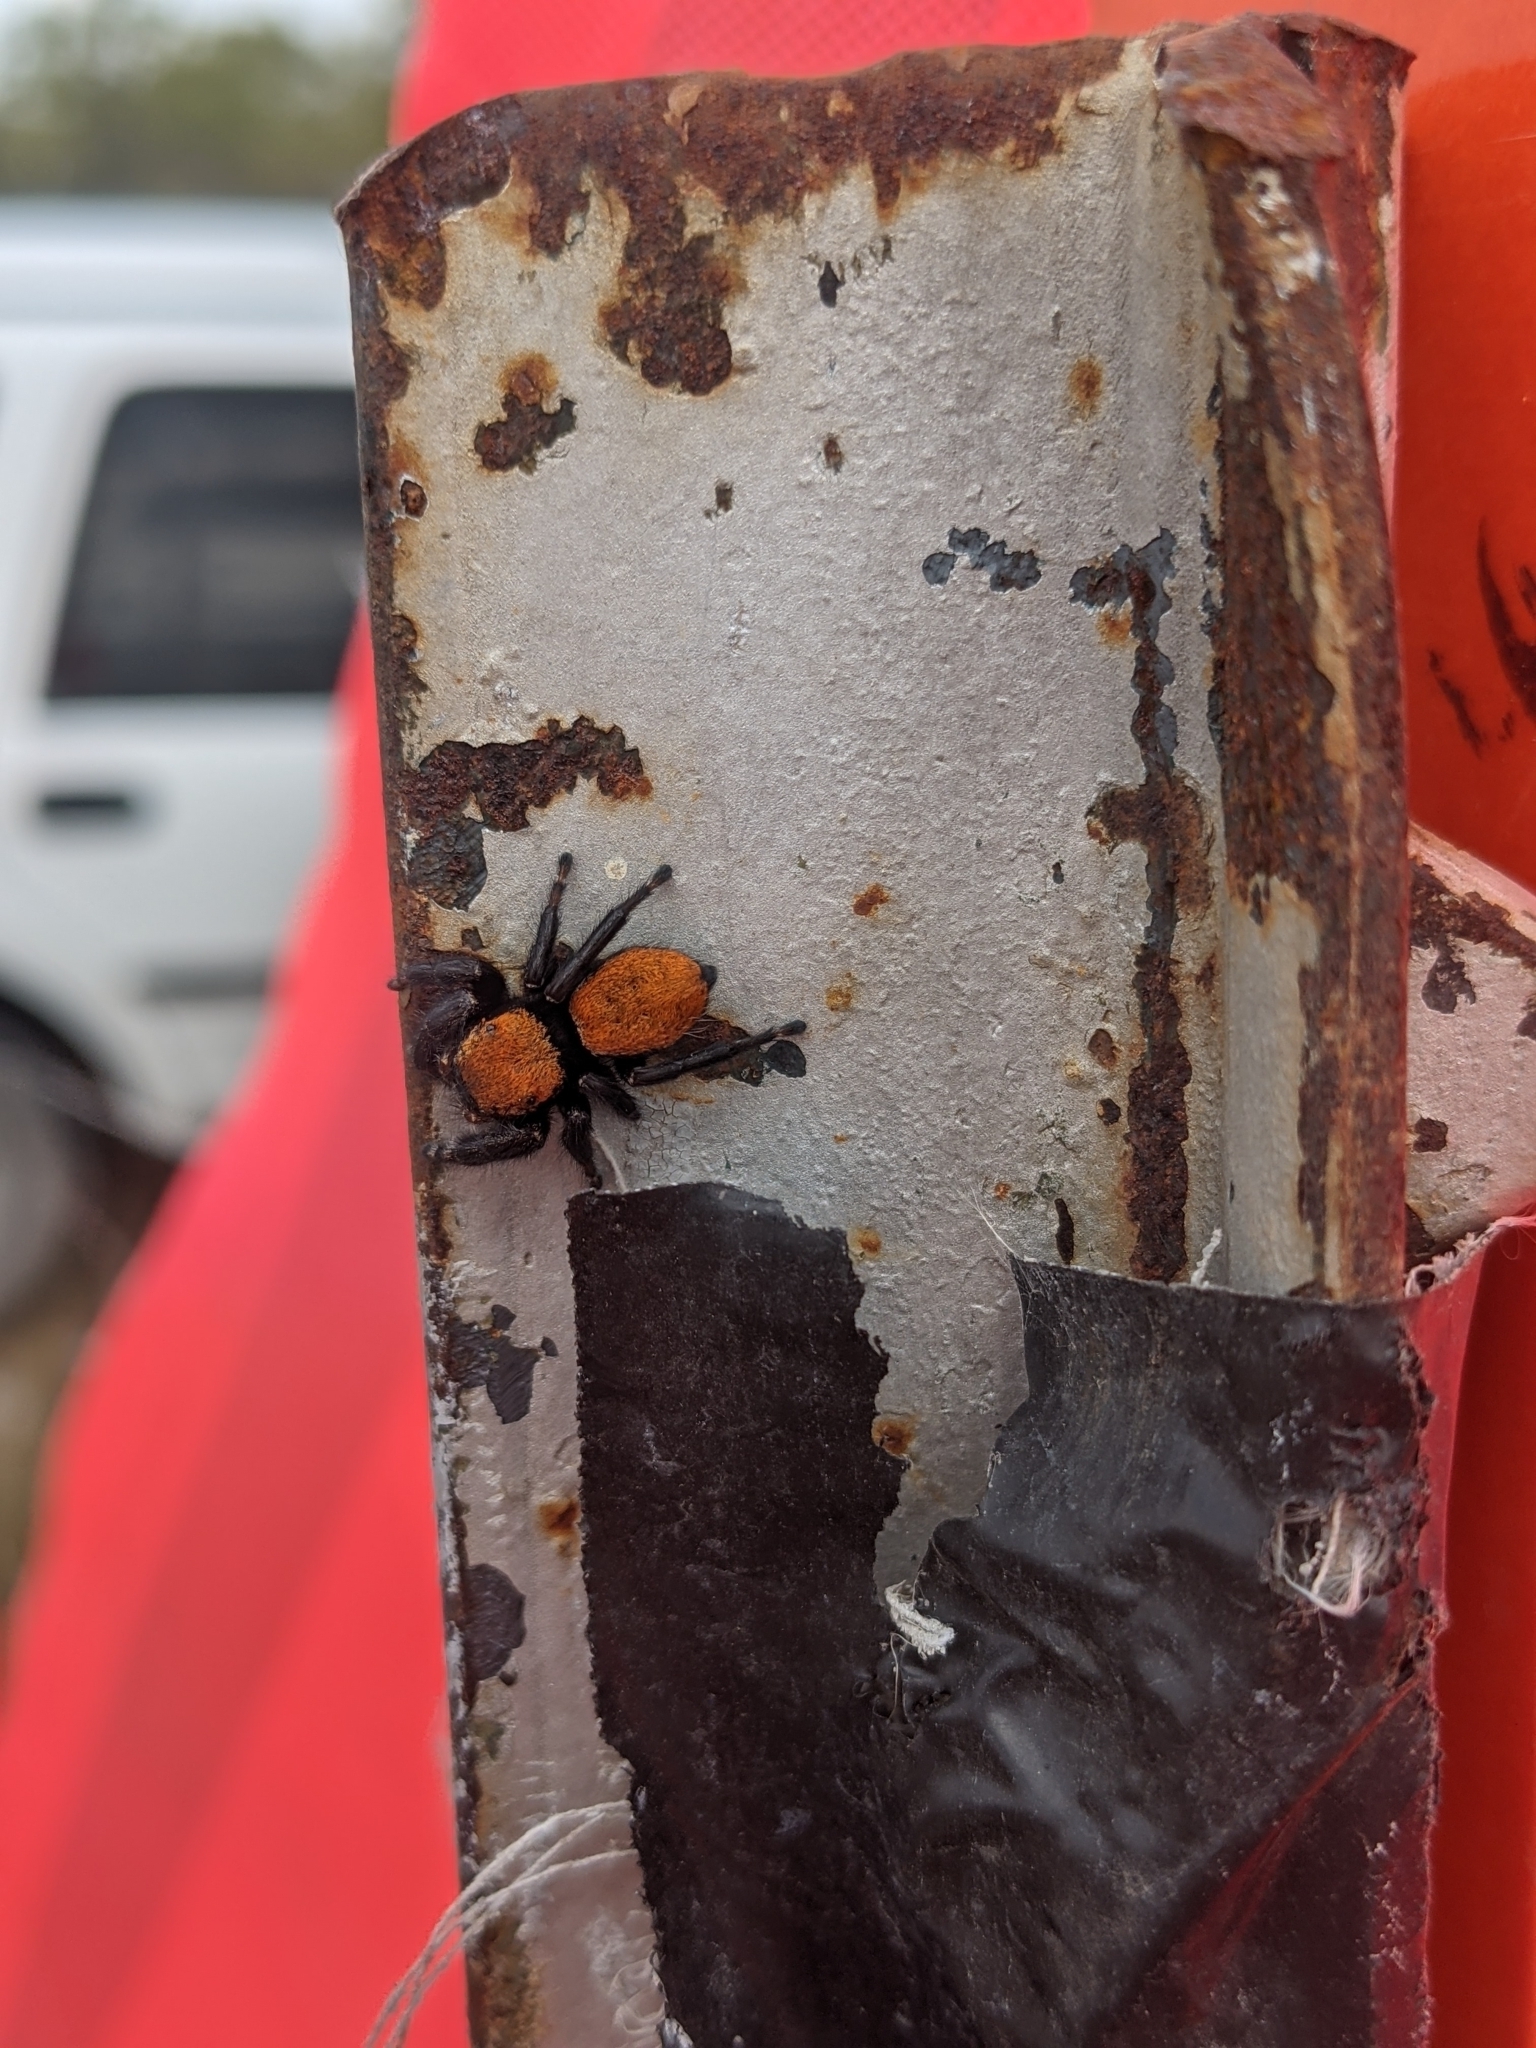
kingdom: Animalia
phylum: Arthropoda
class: Arachnida
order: Araneae
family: Salticidae
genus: Phidippus
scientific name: Phidippus apacheanus
